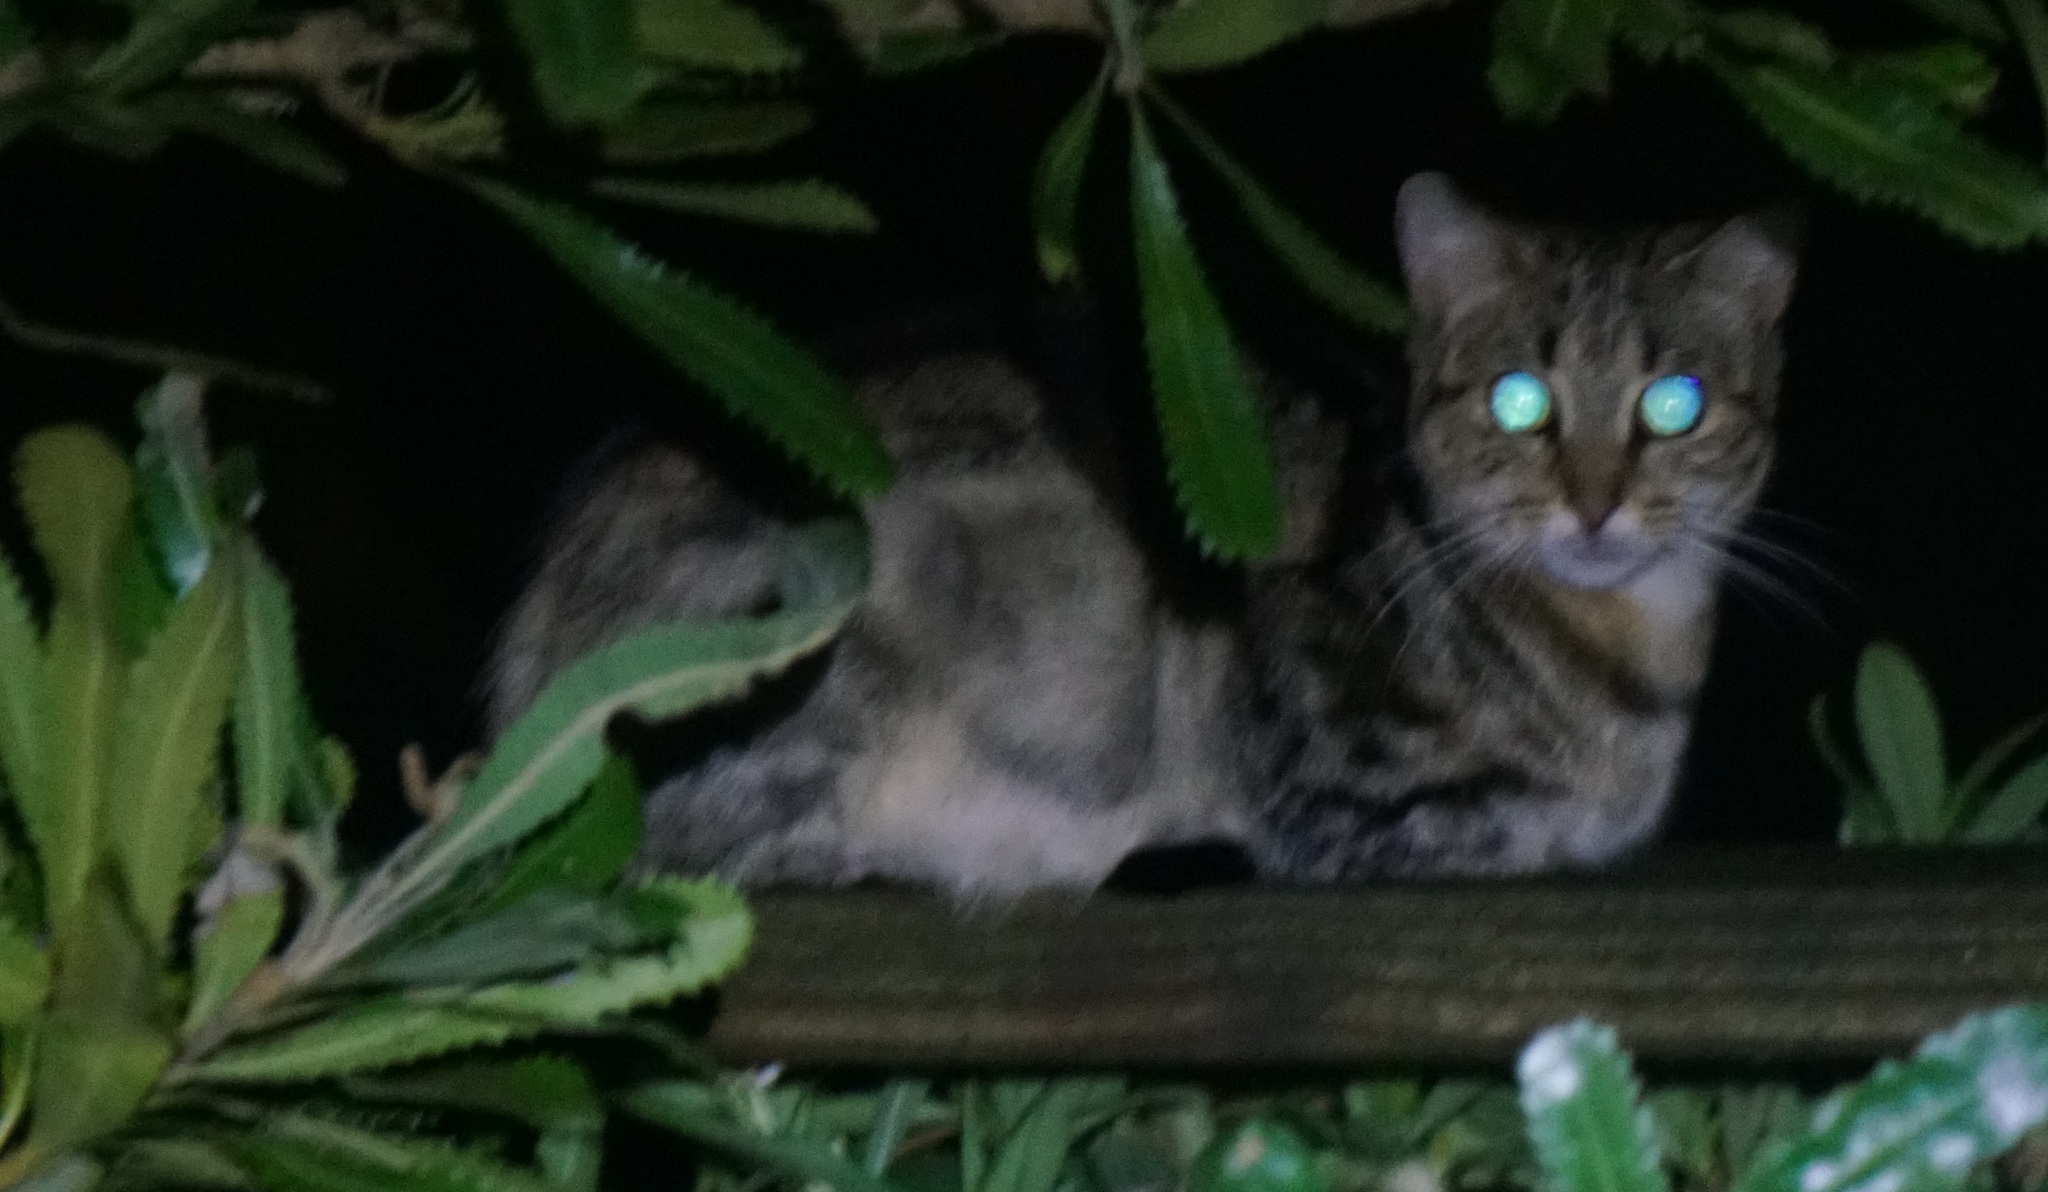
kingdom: Animalia
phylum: Chordata
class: Mammalia
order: Carnivora
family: Felidae
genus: Felis
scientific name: Felis catus
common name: Domestic cat
